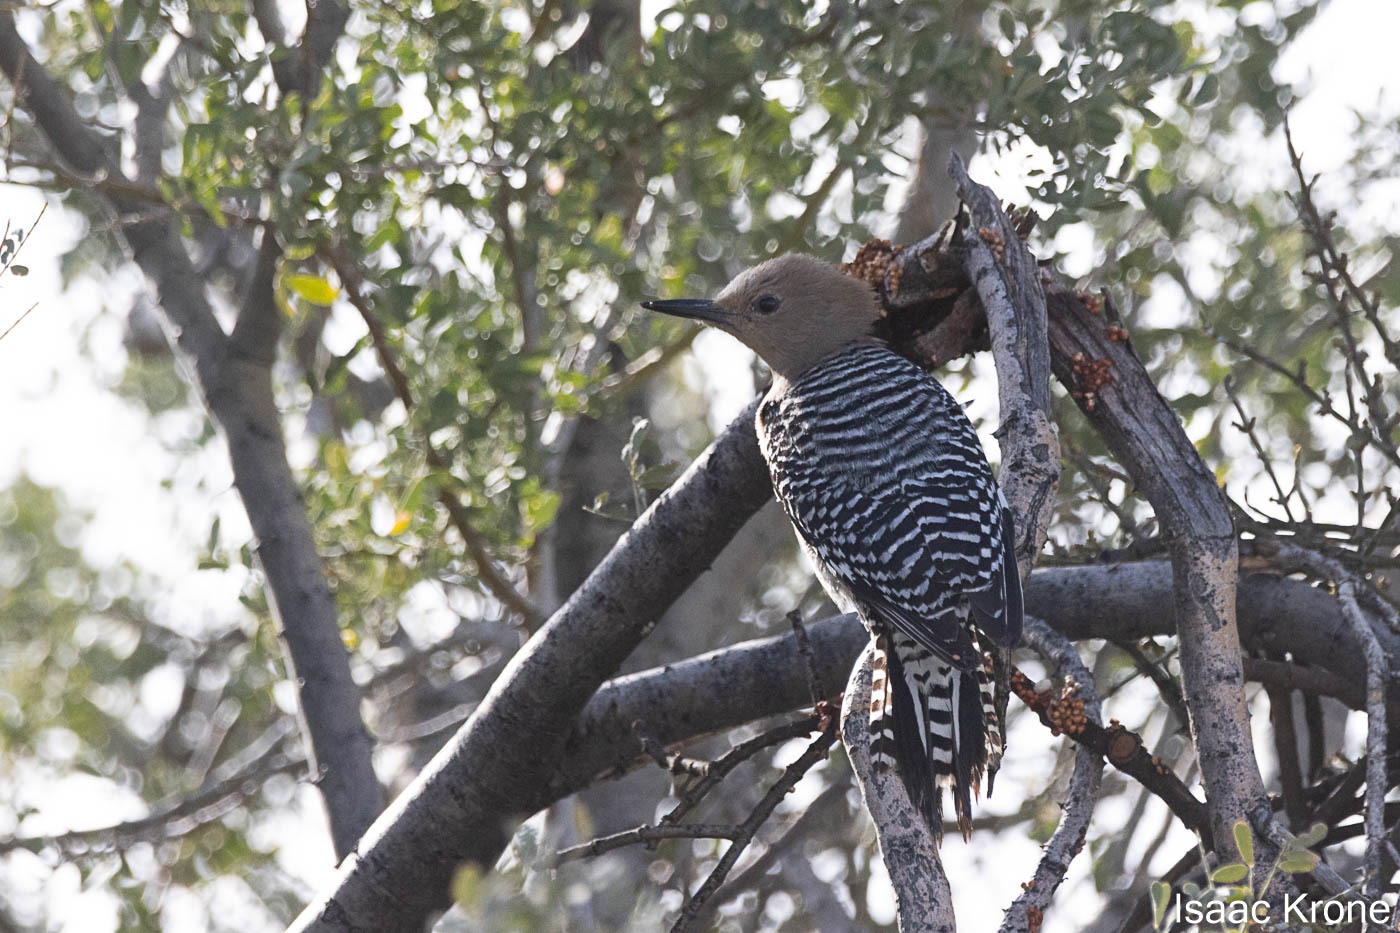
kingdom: Animalia
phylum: Chordata
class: Aves
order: Piciformes
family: Picidae
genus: Melanerpes
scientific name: Melanerpes uropygialis
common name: Gila woodpecker
